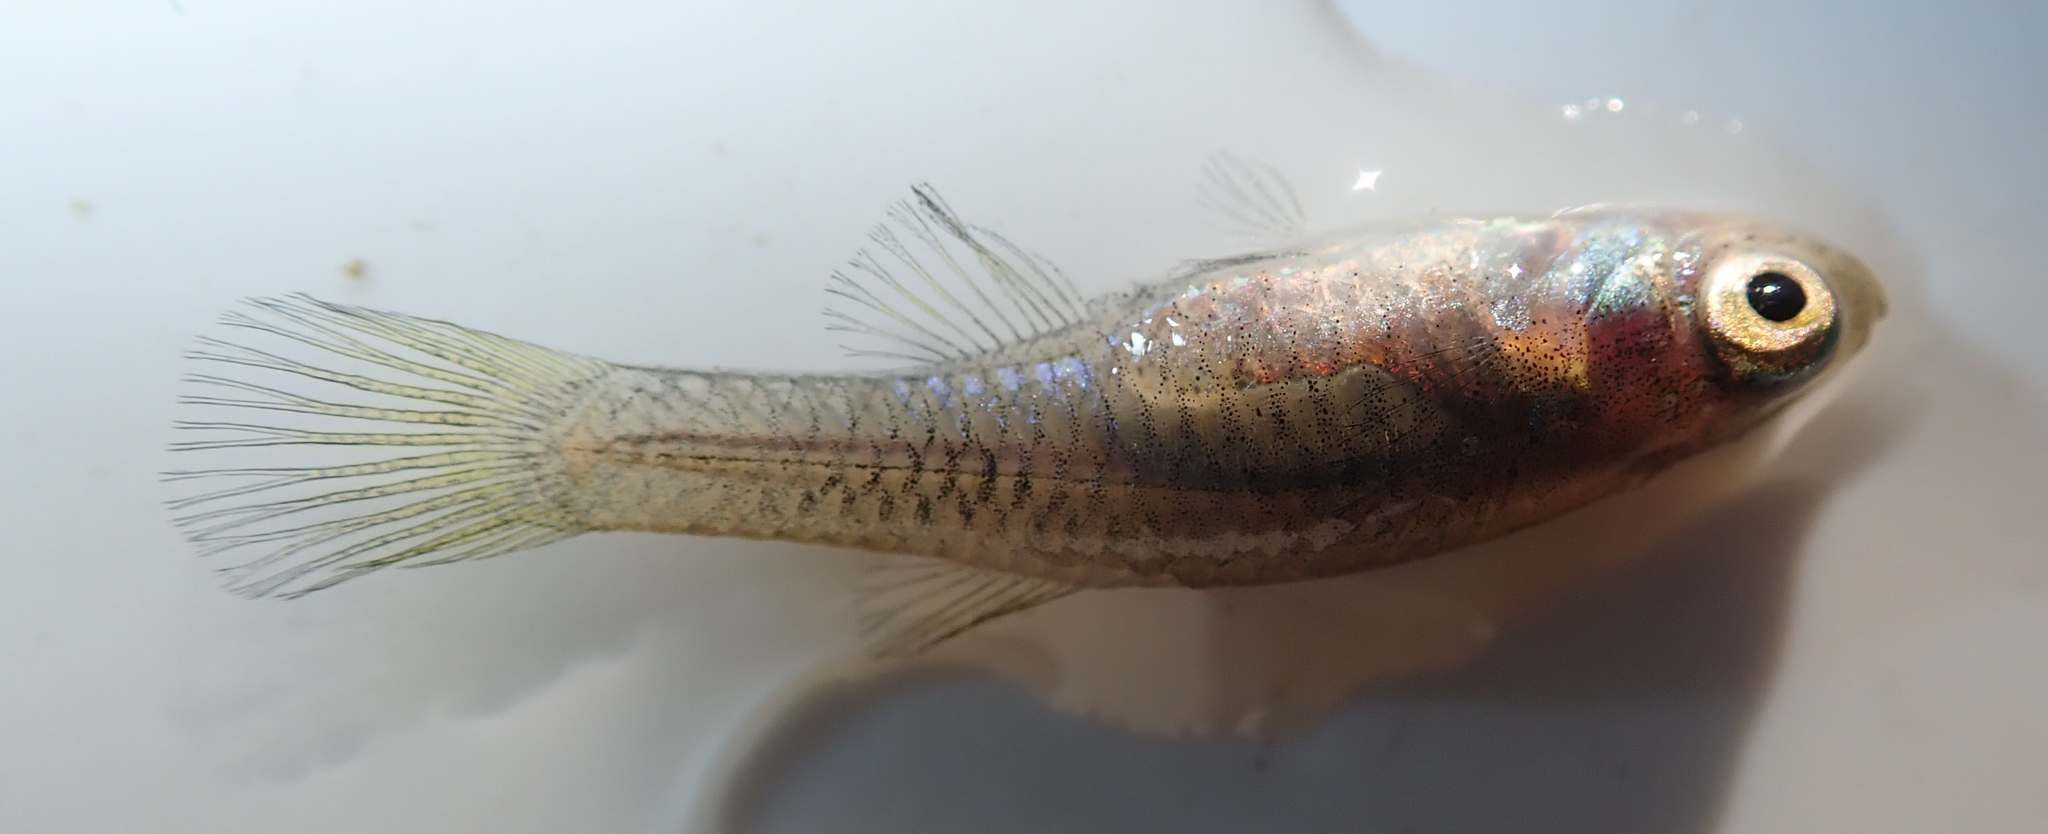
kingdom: Animalia
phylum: Chordata
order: Cyprinodontiformes
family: Poeciliidae
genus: Micropanchax
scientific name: Micropanchax hutereaui
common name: Meshscaled topminnow
